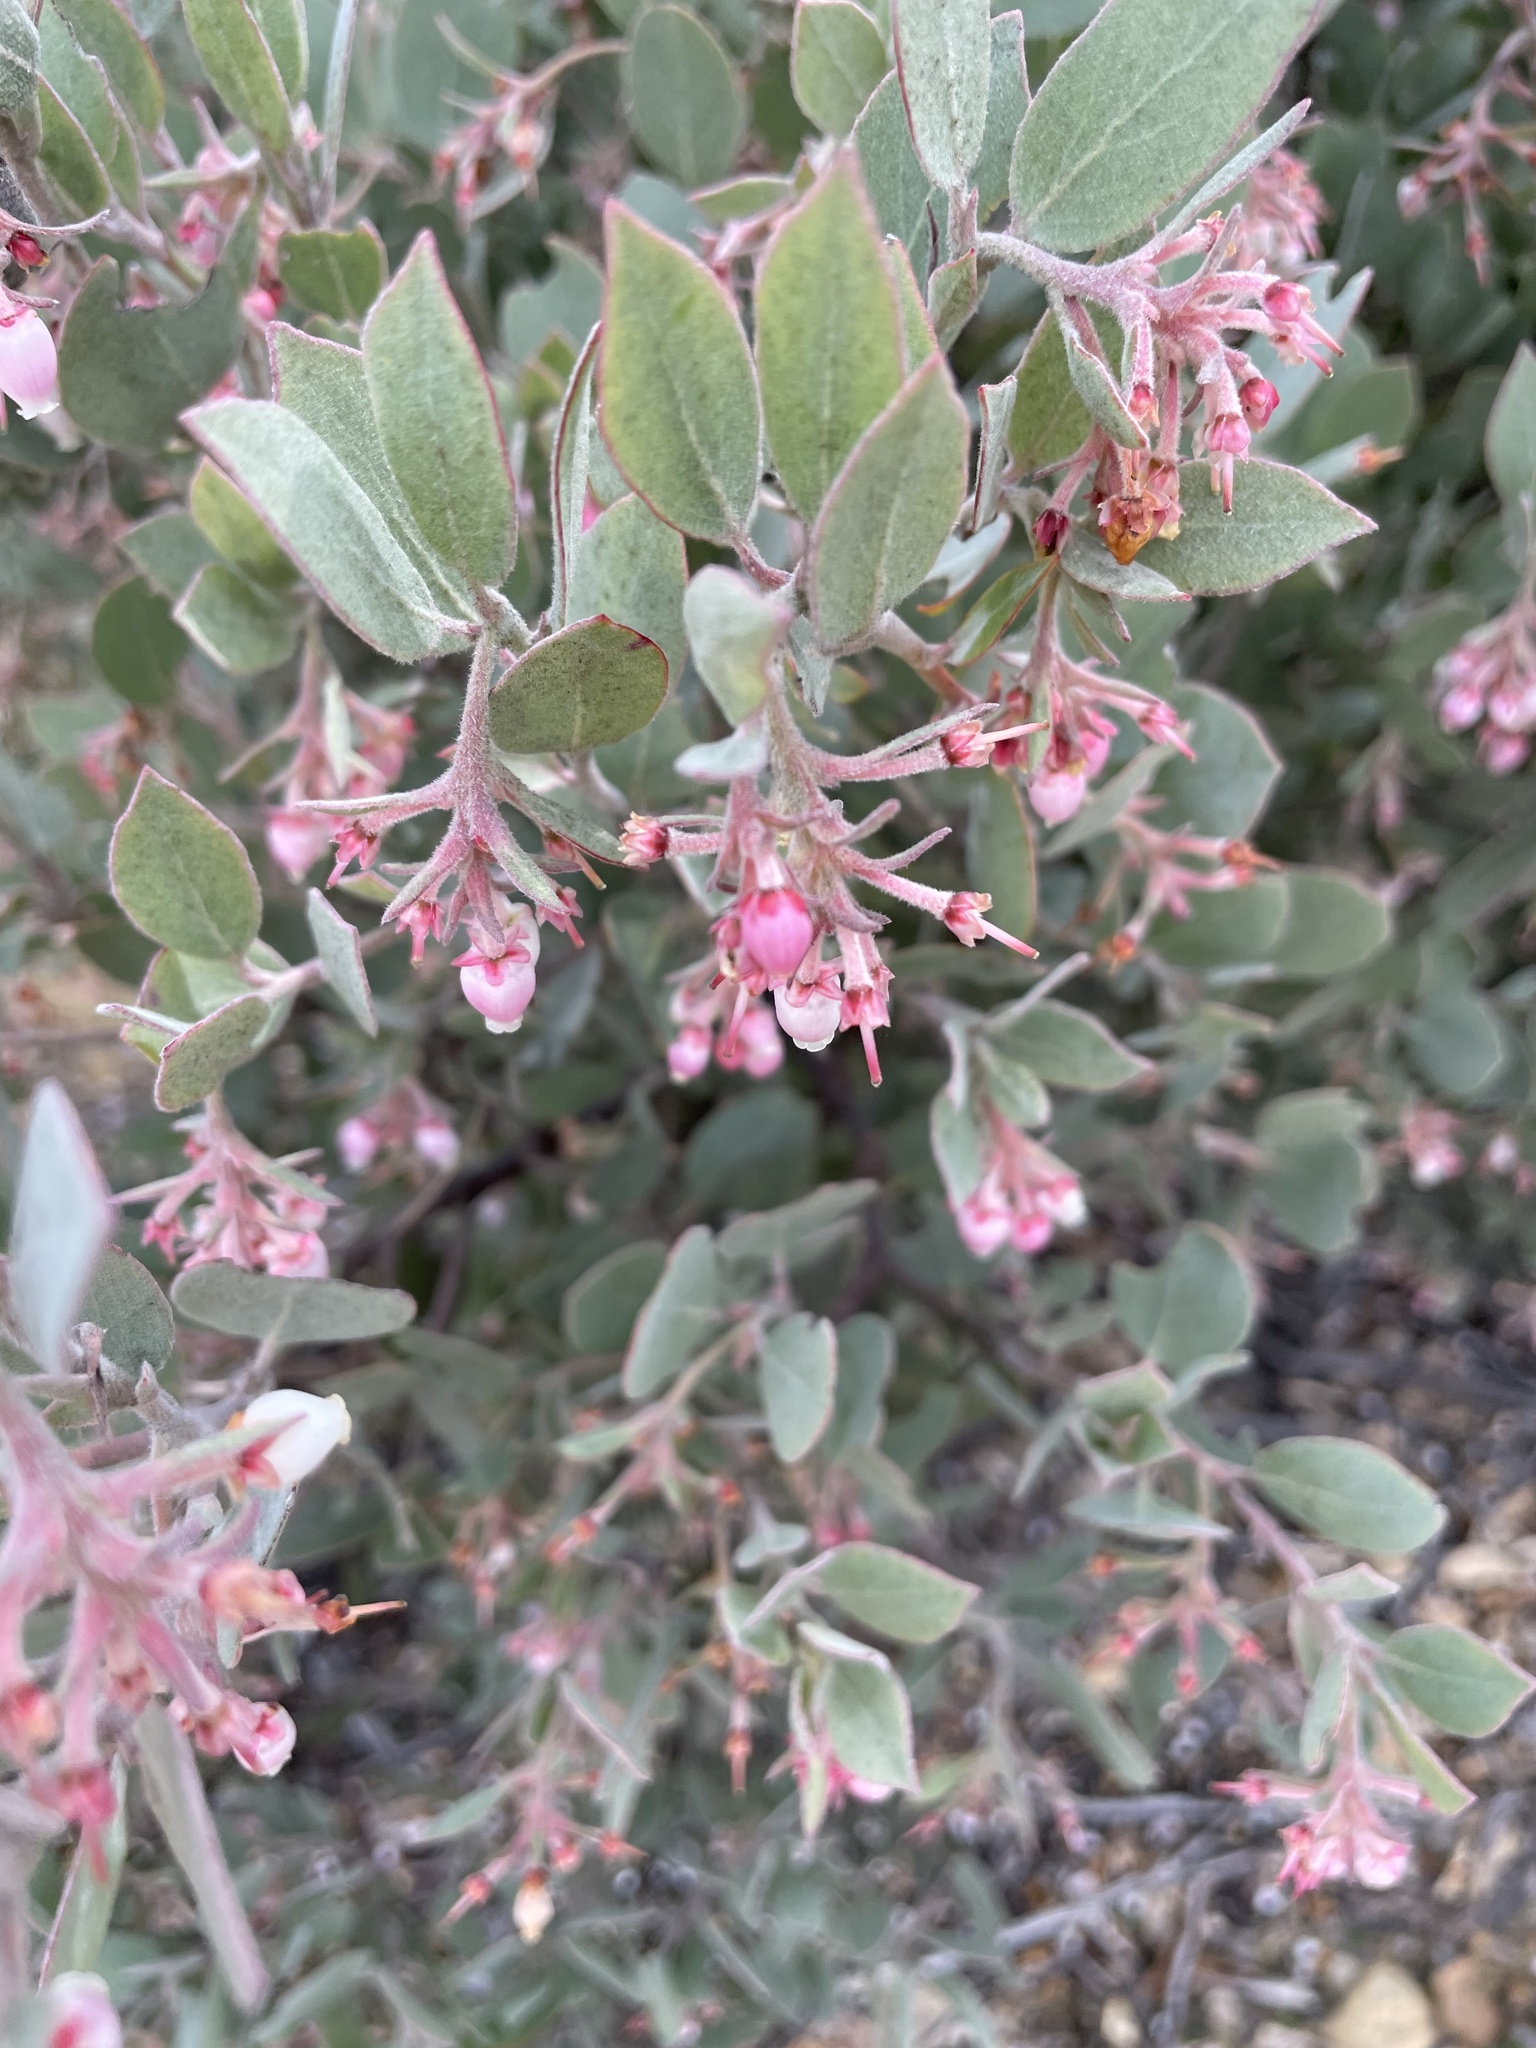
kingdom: Plantae
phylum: Tracheophyta
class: Magnoliopsida
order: Ericales
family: Ericaceae
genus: Arctostaphylos
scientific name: Arctostaphylos canescens
